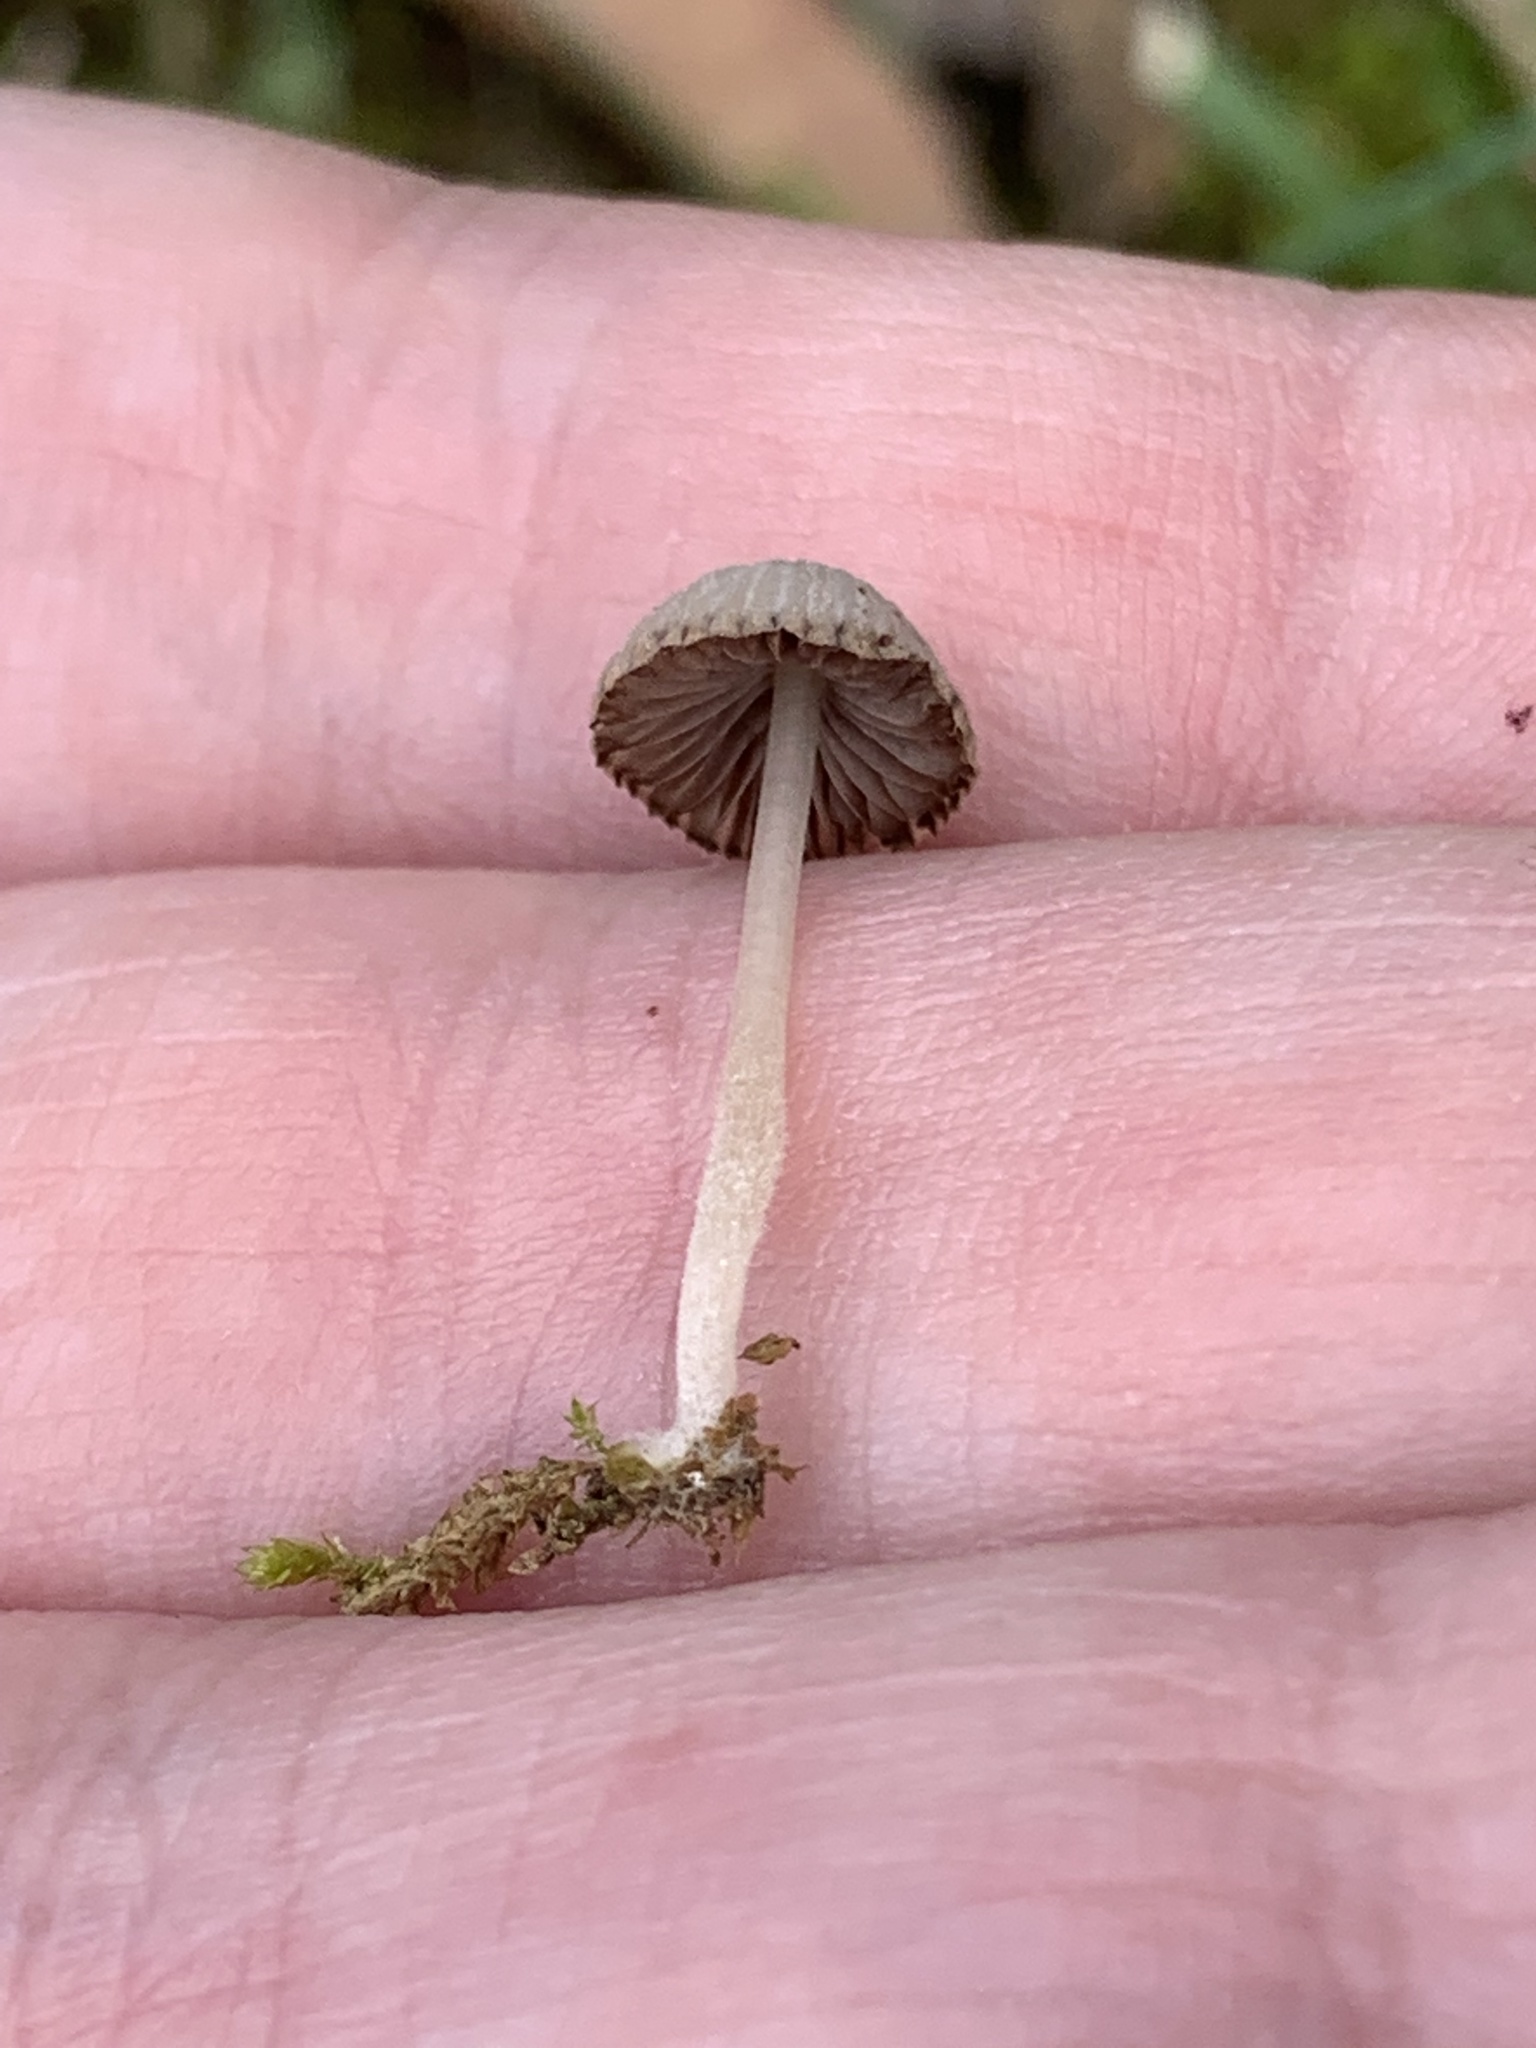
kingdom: Fungi
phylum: Basidiomycota
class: Agaricomycetes
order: Agaricales
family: Psathyrellaceae
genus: Coprinellus
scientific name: Coprinellus disseminatus
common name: Fairies' bonnets
